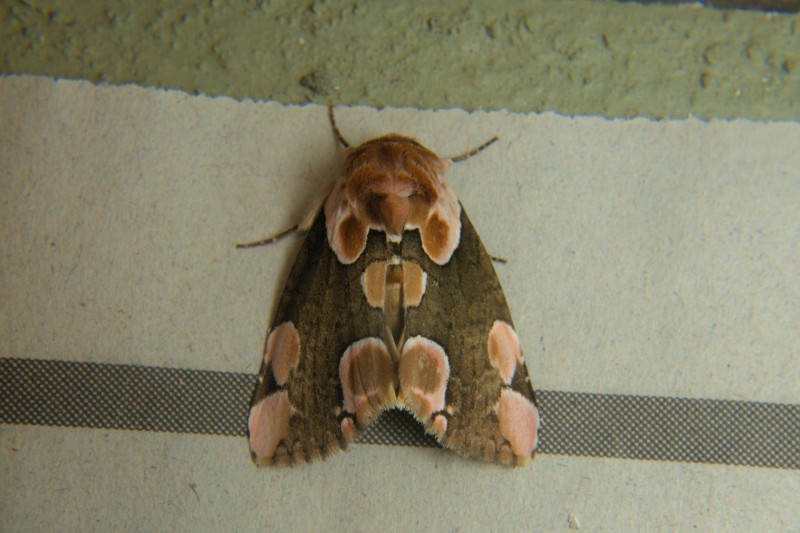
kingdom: Animalia
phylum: Arthropoda
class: Insecta
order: Lepidoptera
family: Drepanidae
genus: Thyatira
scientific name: Thyatira batis
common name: Peach blossom
